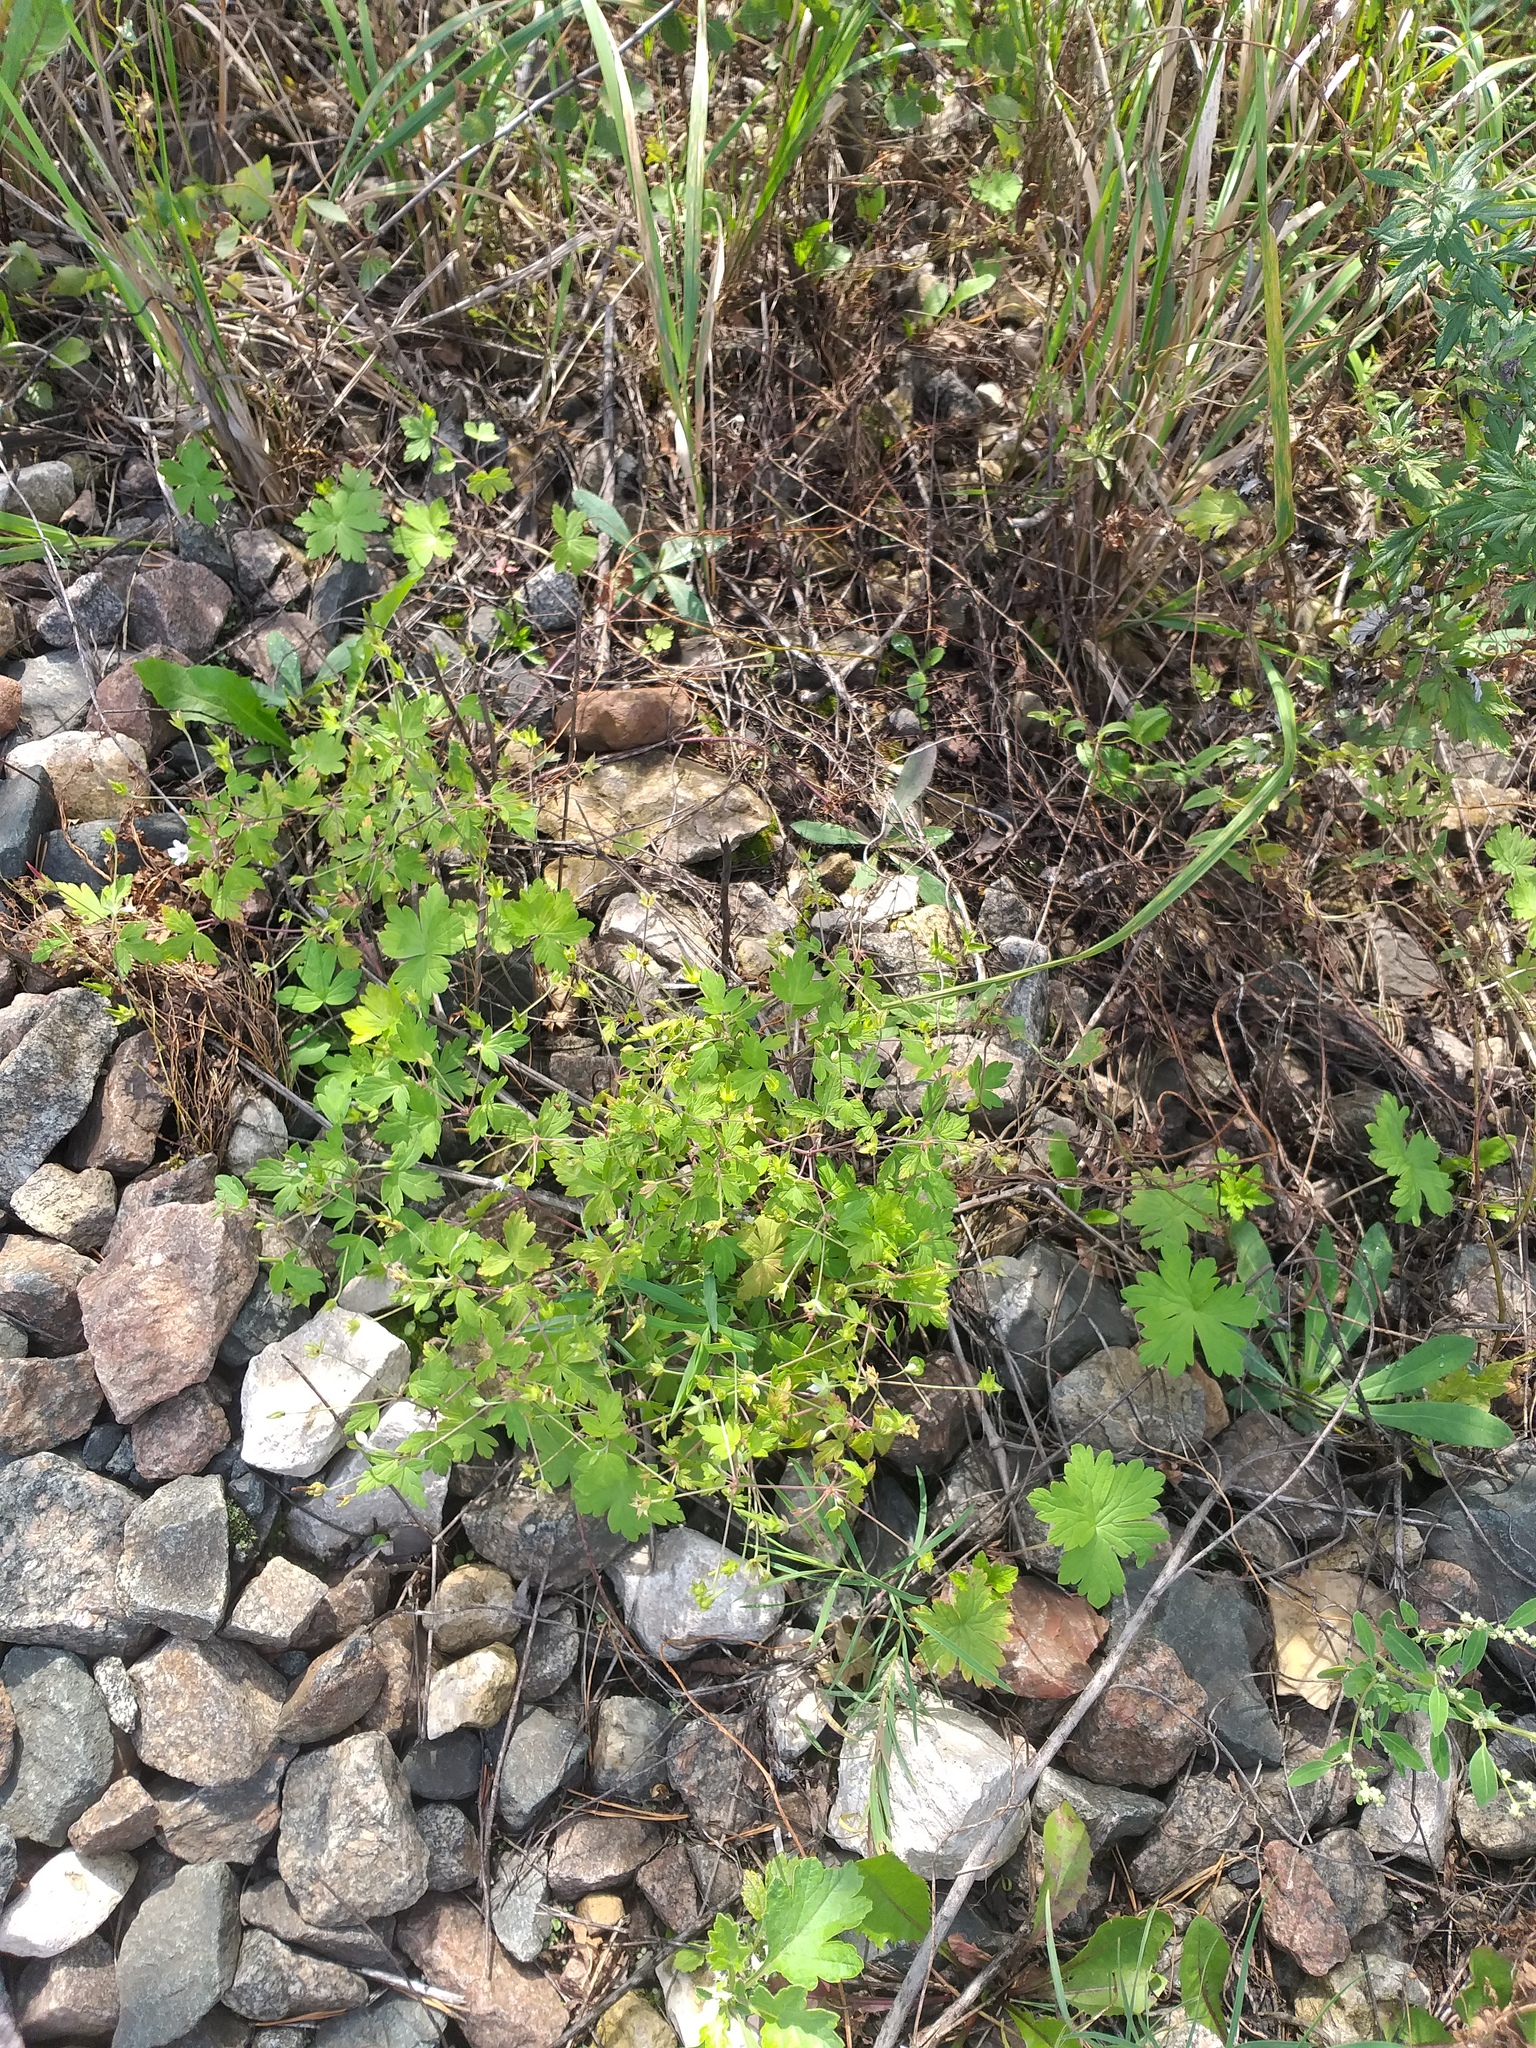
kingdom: Plantae
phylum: Tracheophyta
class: Magnoliopsida
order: Geraniales
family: Geraniaceae
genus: Geranium
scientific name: Geranium sibiricum
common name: Siberian crane's-bill
